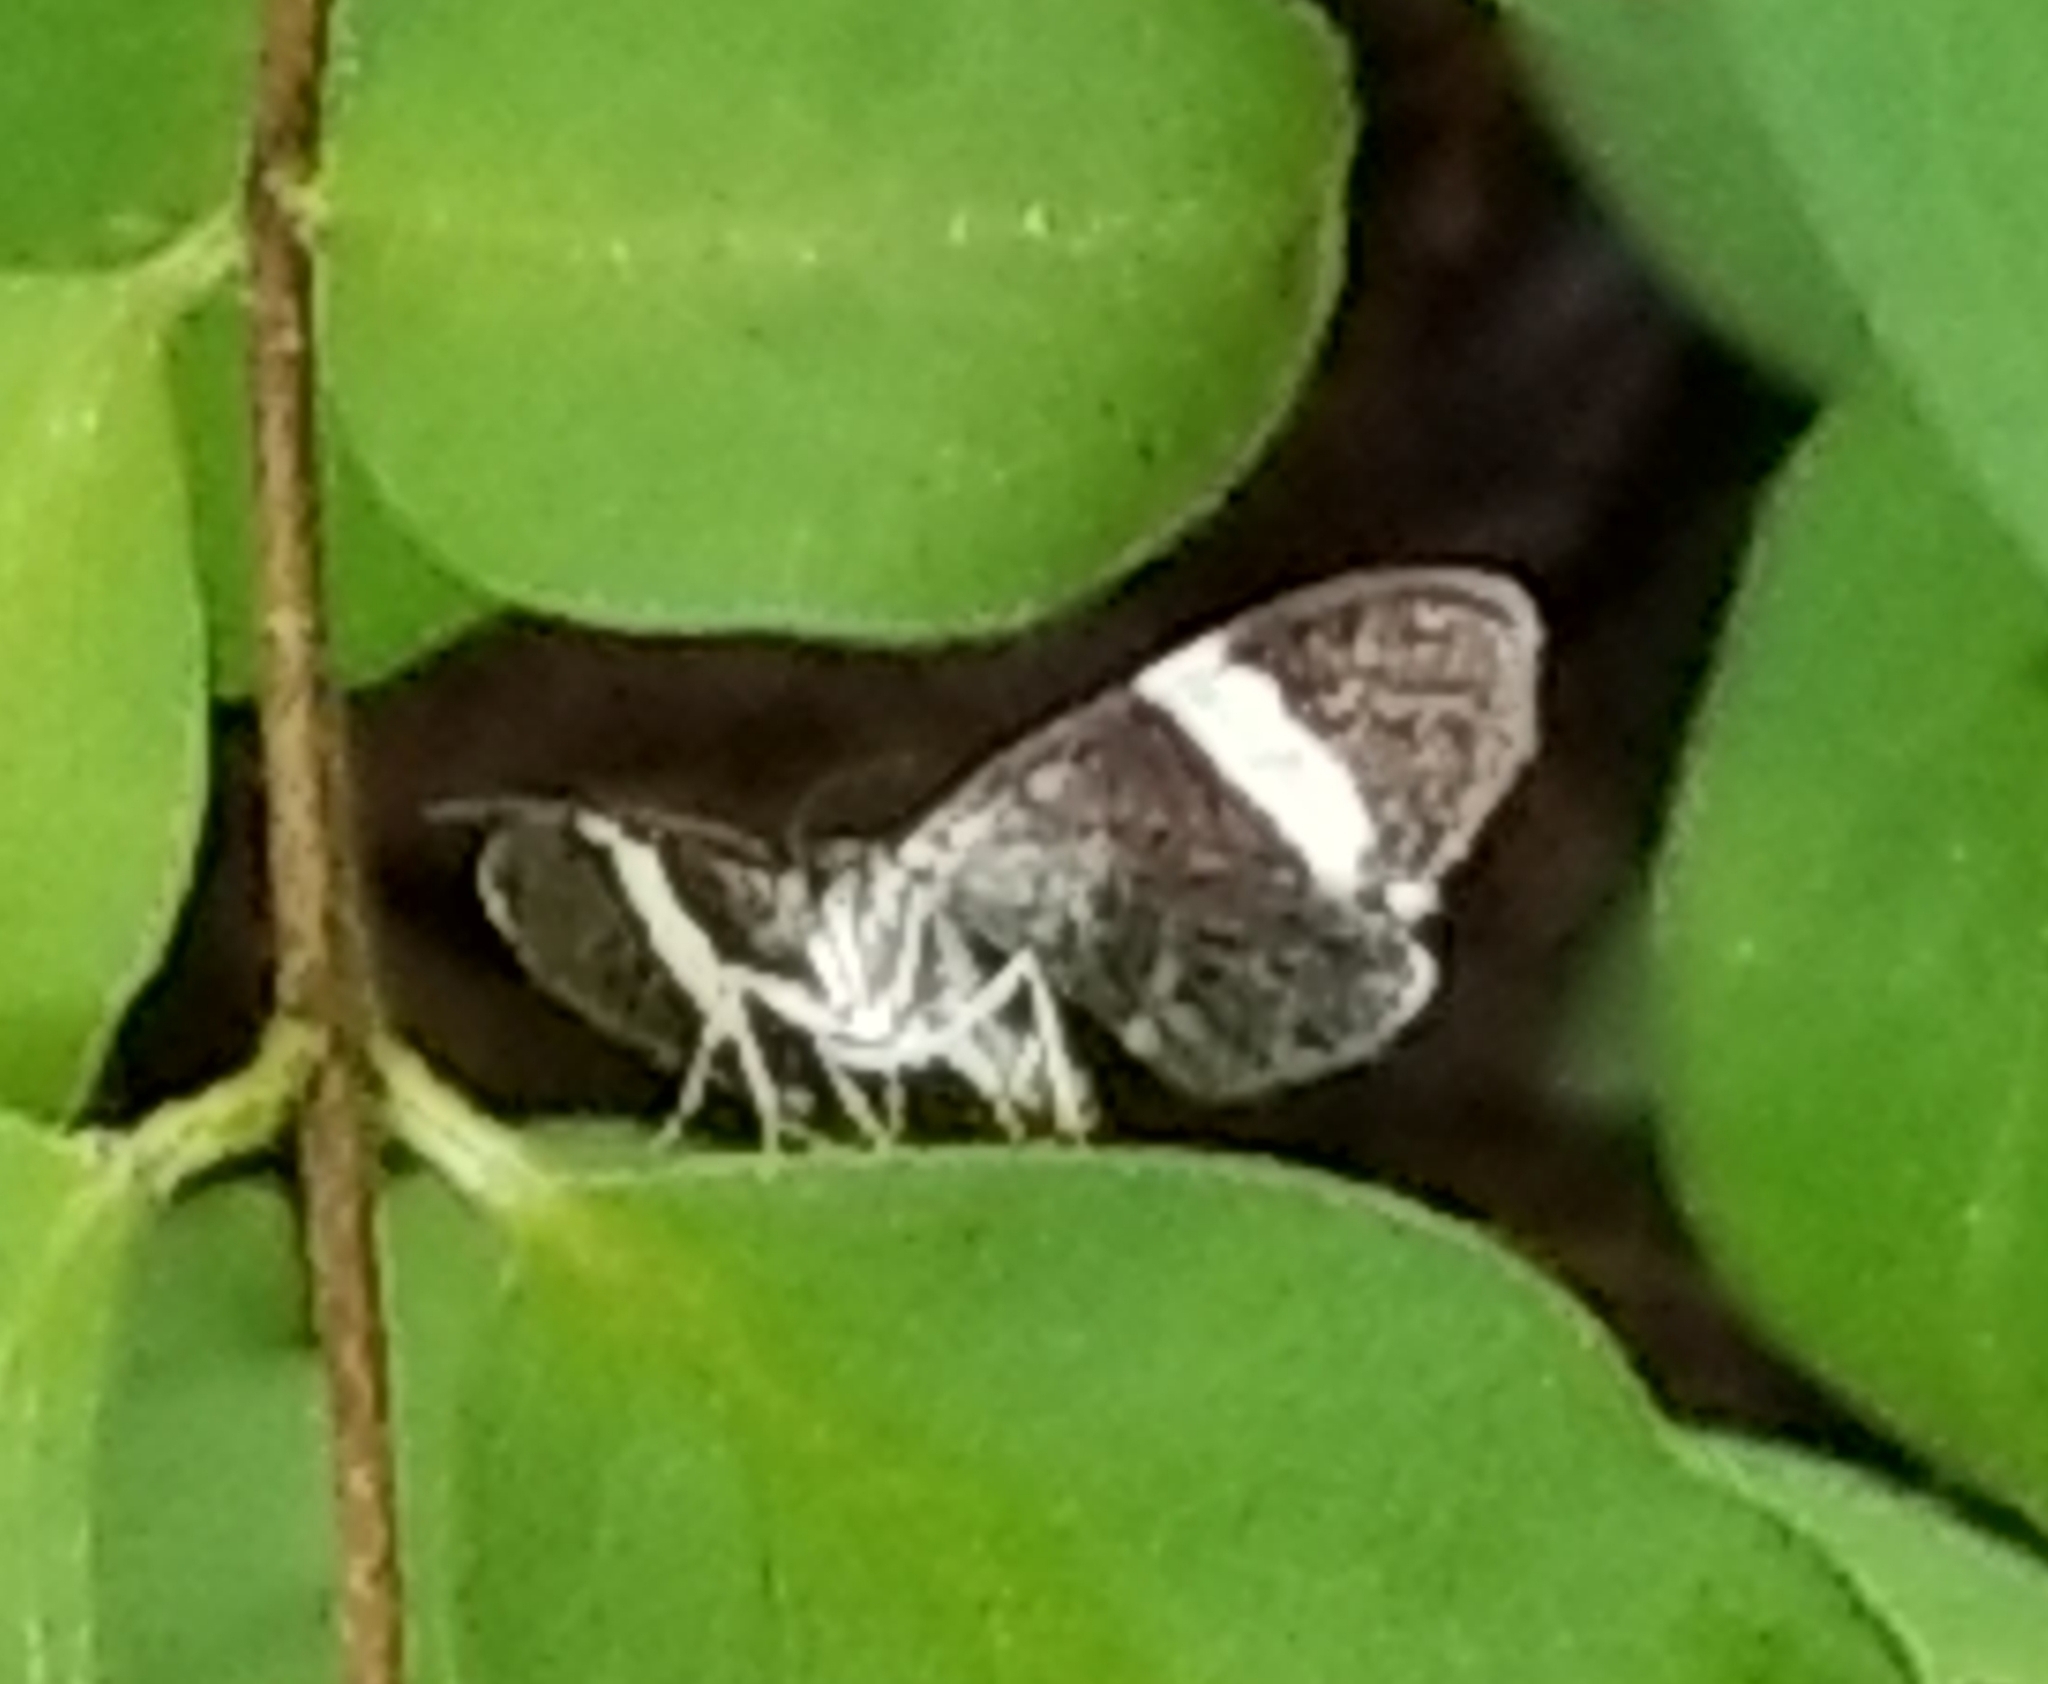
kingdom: Animalia
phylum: Arthropoda
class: Insecta
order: Lepidoptera
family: Geometridae
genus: Trichodezia
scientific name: Trichodezia albovittata
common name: White striped black
